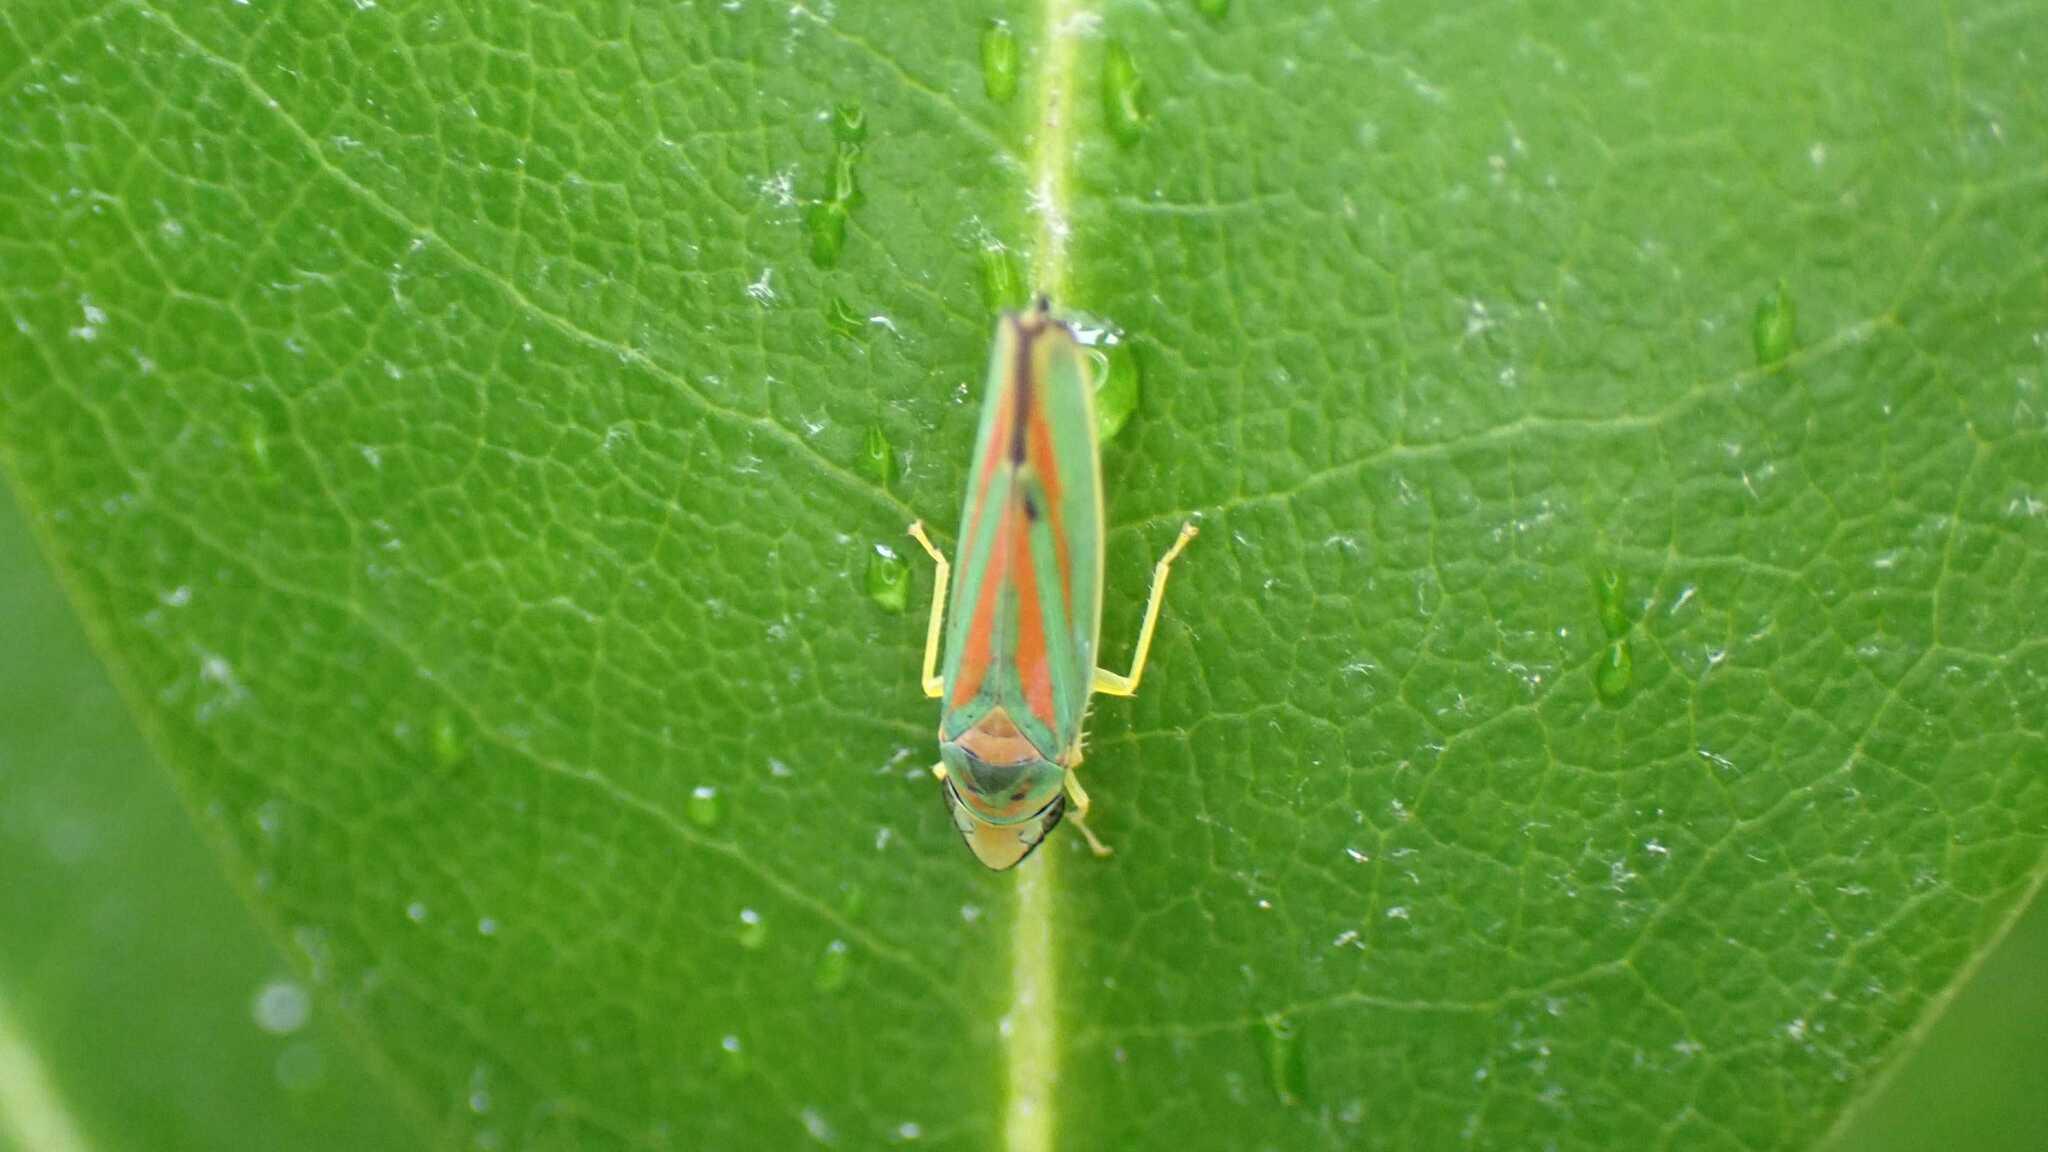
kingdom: Animalia
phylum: Arthropoda
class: Insecta
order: Hemiptera
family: Cicadellidae
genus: Graphocephala
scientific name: Graphocephala fennahi
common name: Rhododendron leafhopper
